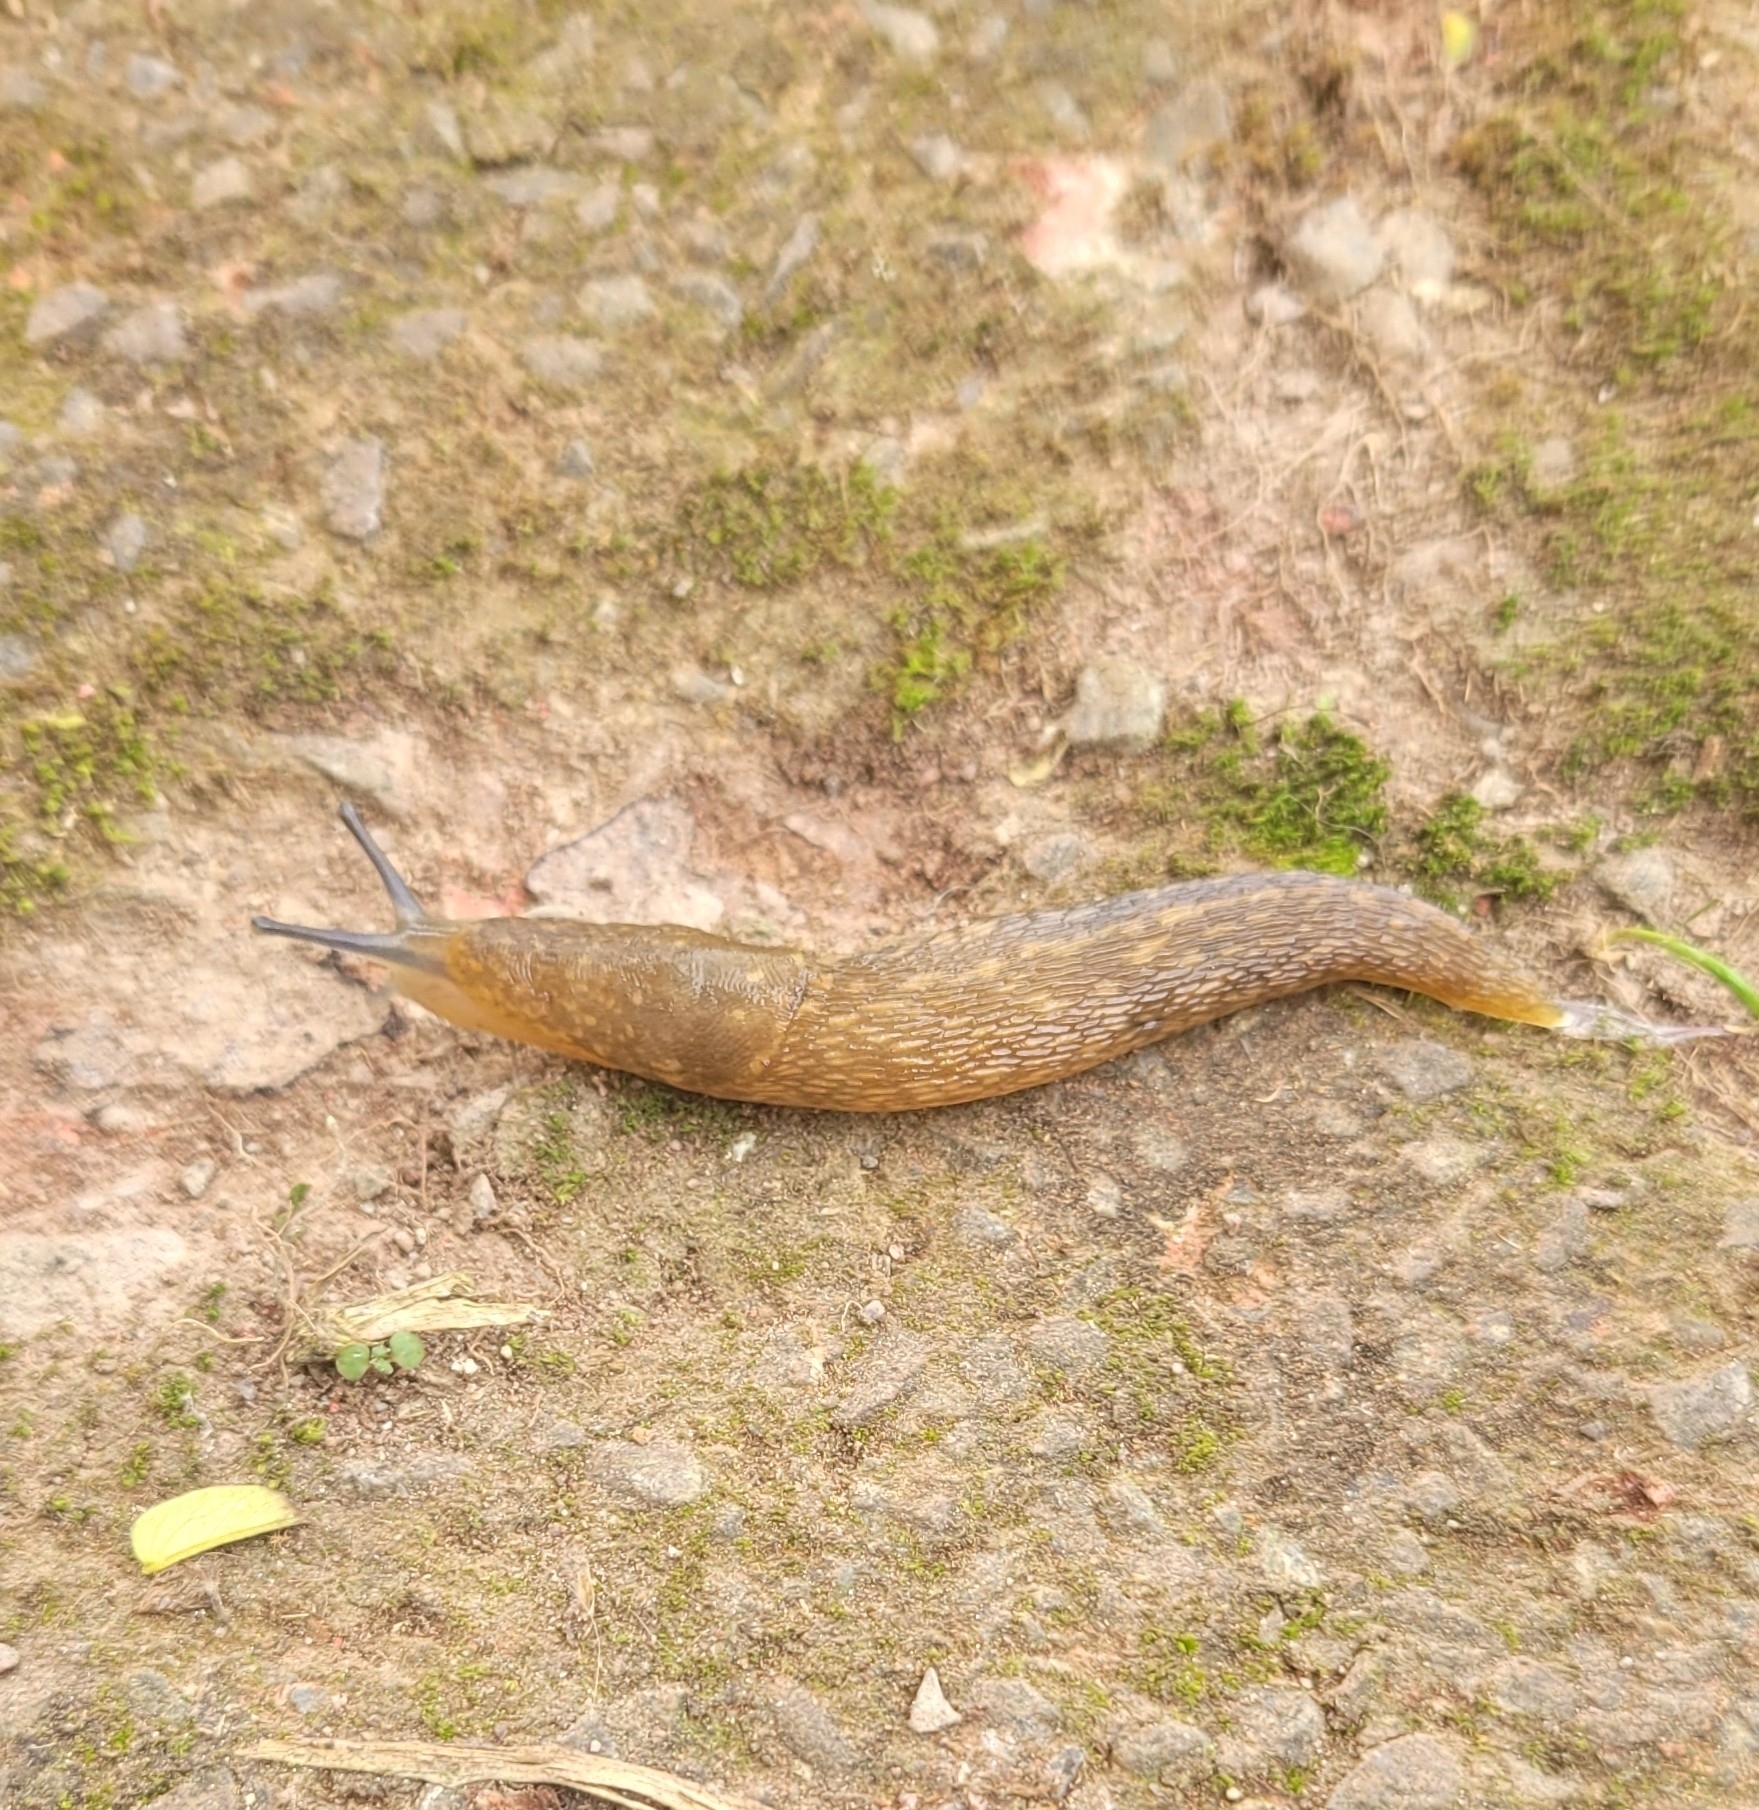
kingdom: Animalia
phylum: Mollusca
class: Gastropoda
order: Stylommatophora
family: Limacidae
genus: Limacus
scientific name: Limacus flavus
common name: Yellow gardenslug
